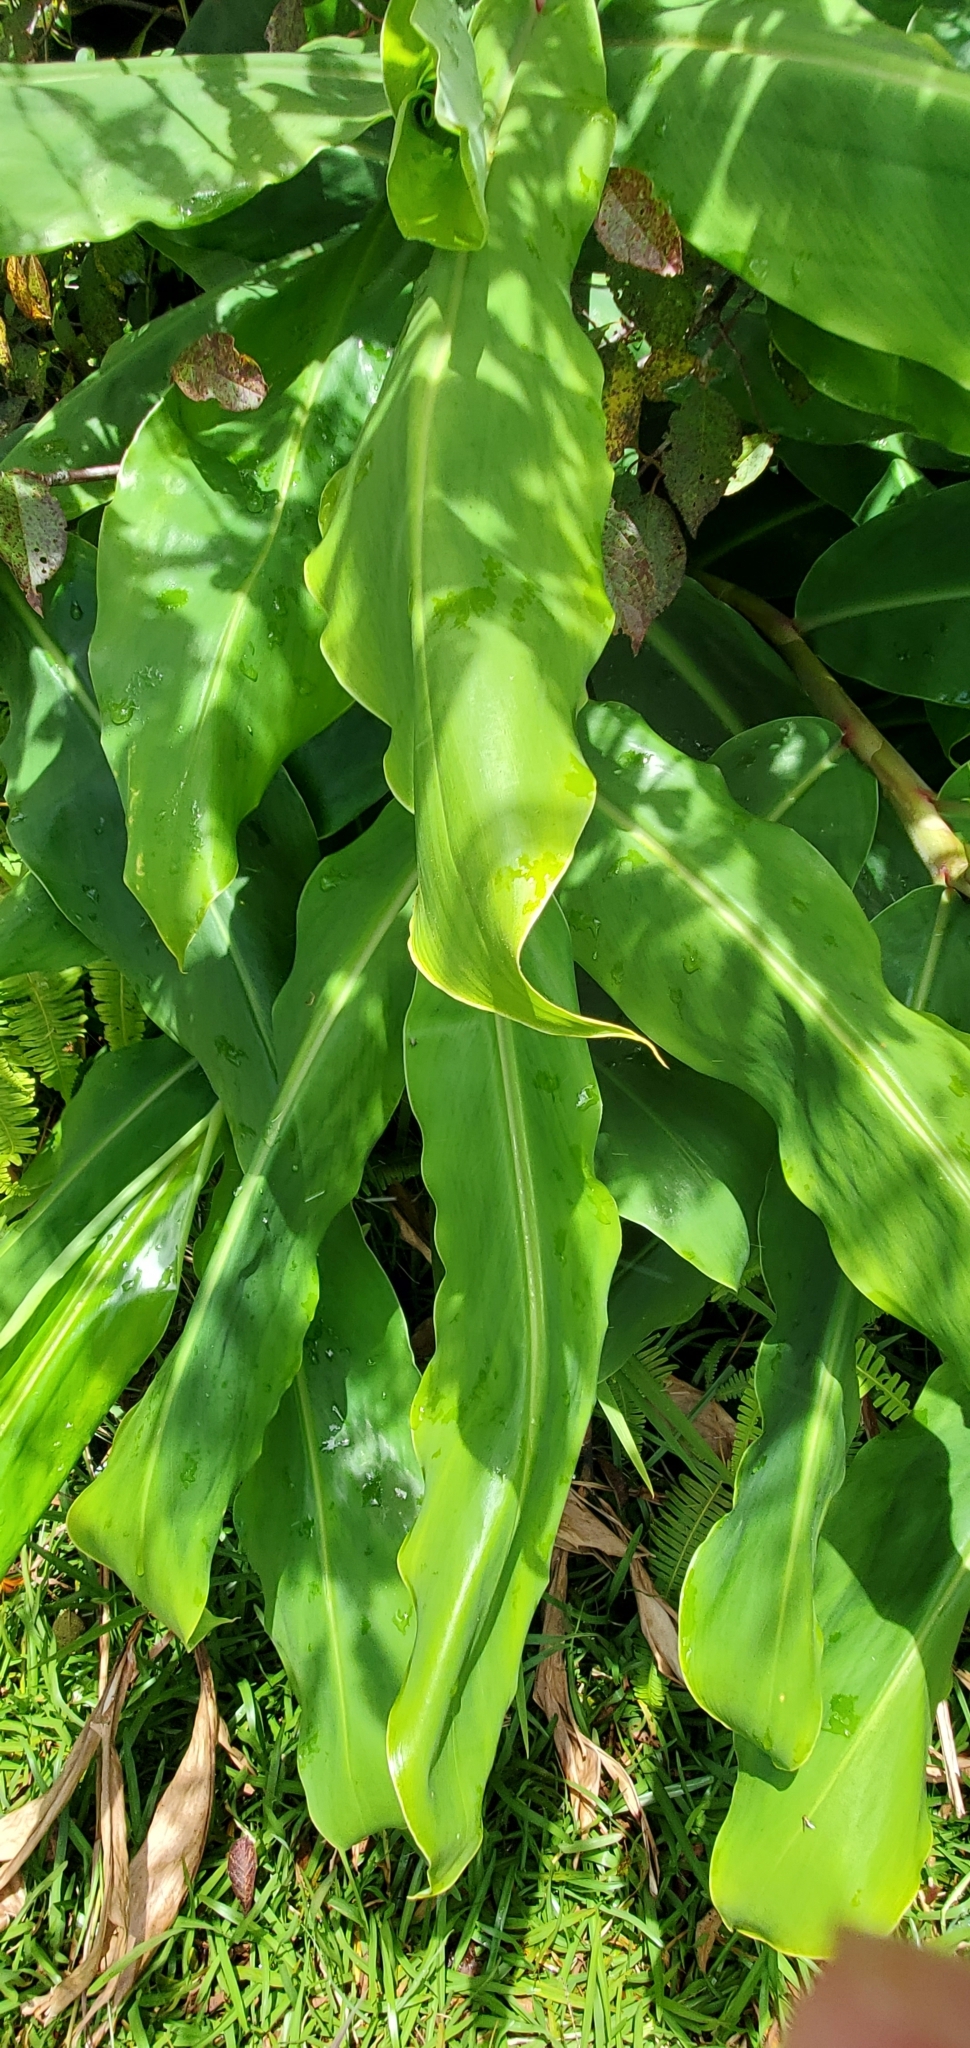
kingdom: Plantae
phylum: Tracheophyta
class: Liliopsida
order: Zingiberales
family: Zingiberaceae
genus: Hedychium
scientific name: Hedychium gardnerianum
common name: Himalayan ginger
